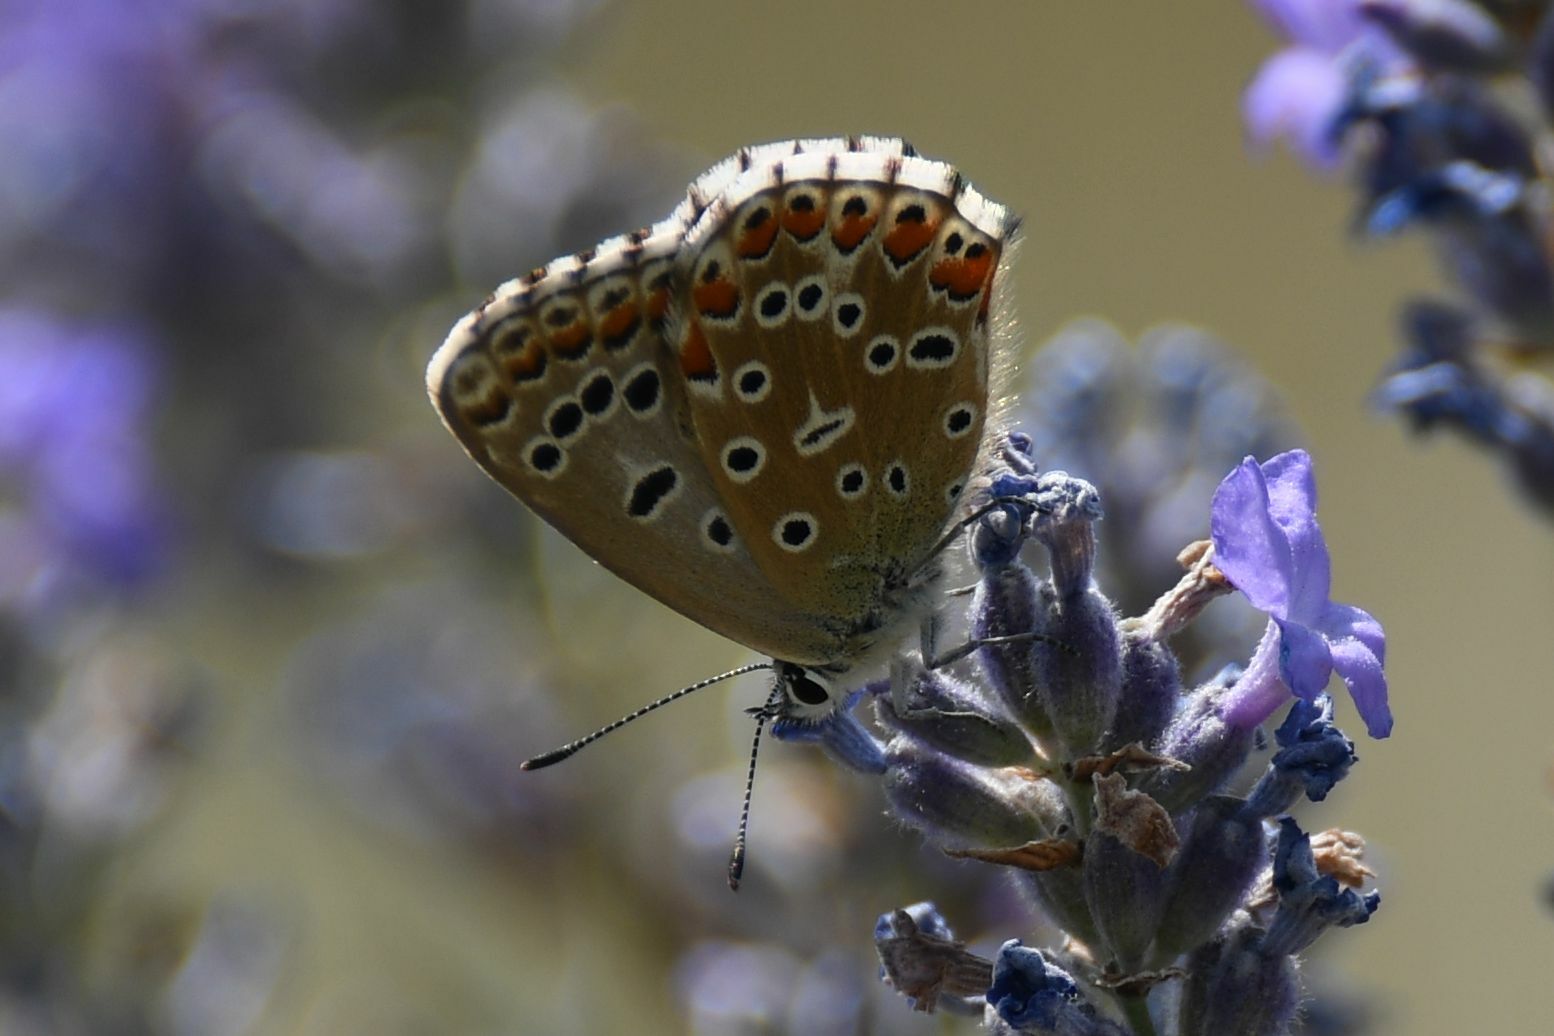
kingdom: Animalia
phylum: Arthropoda
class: Insecta
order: Lepidoptera
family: Lycaenidae
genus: Lysandra
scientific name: Lysandra bellargus
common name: Adonis blue
